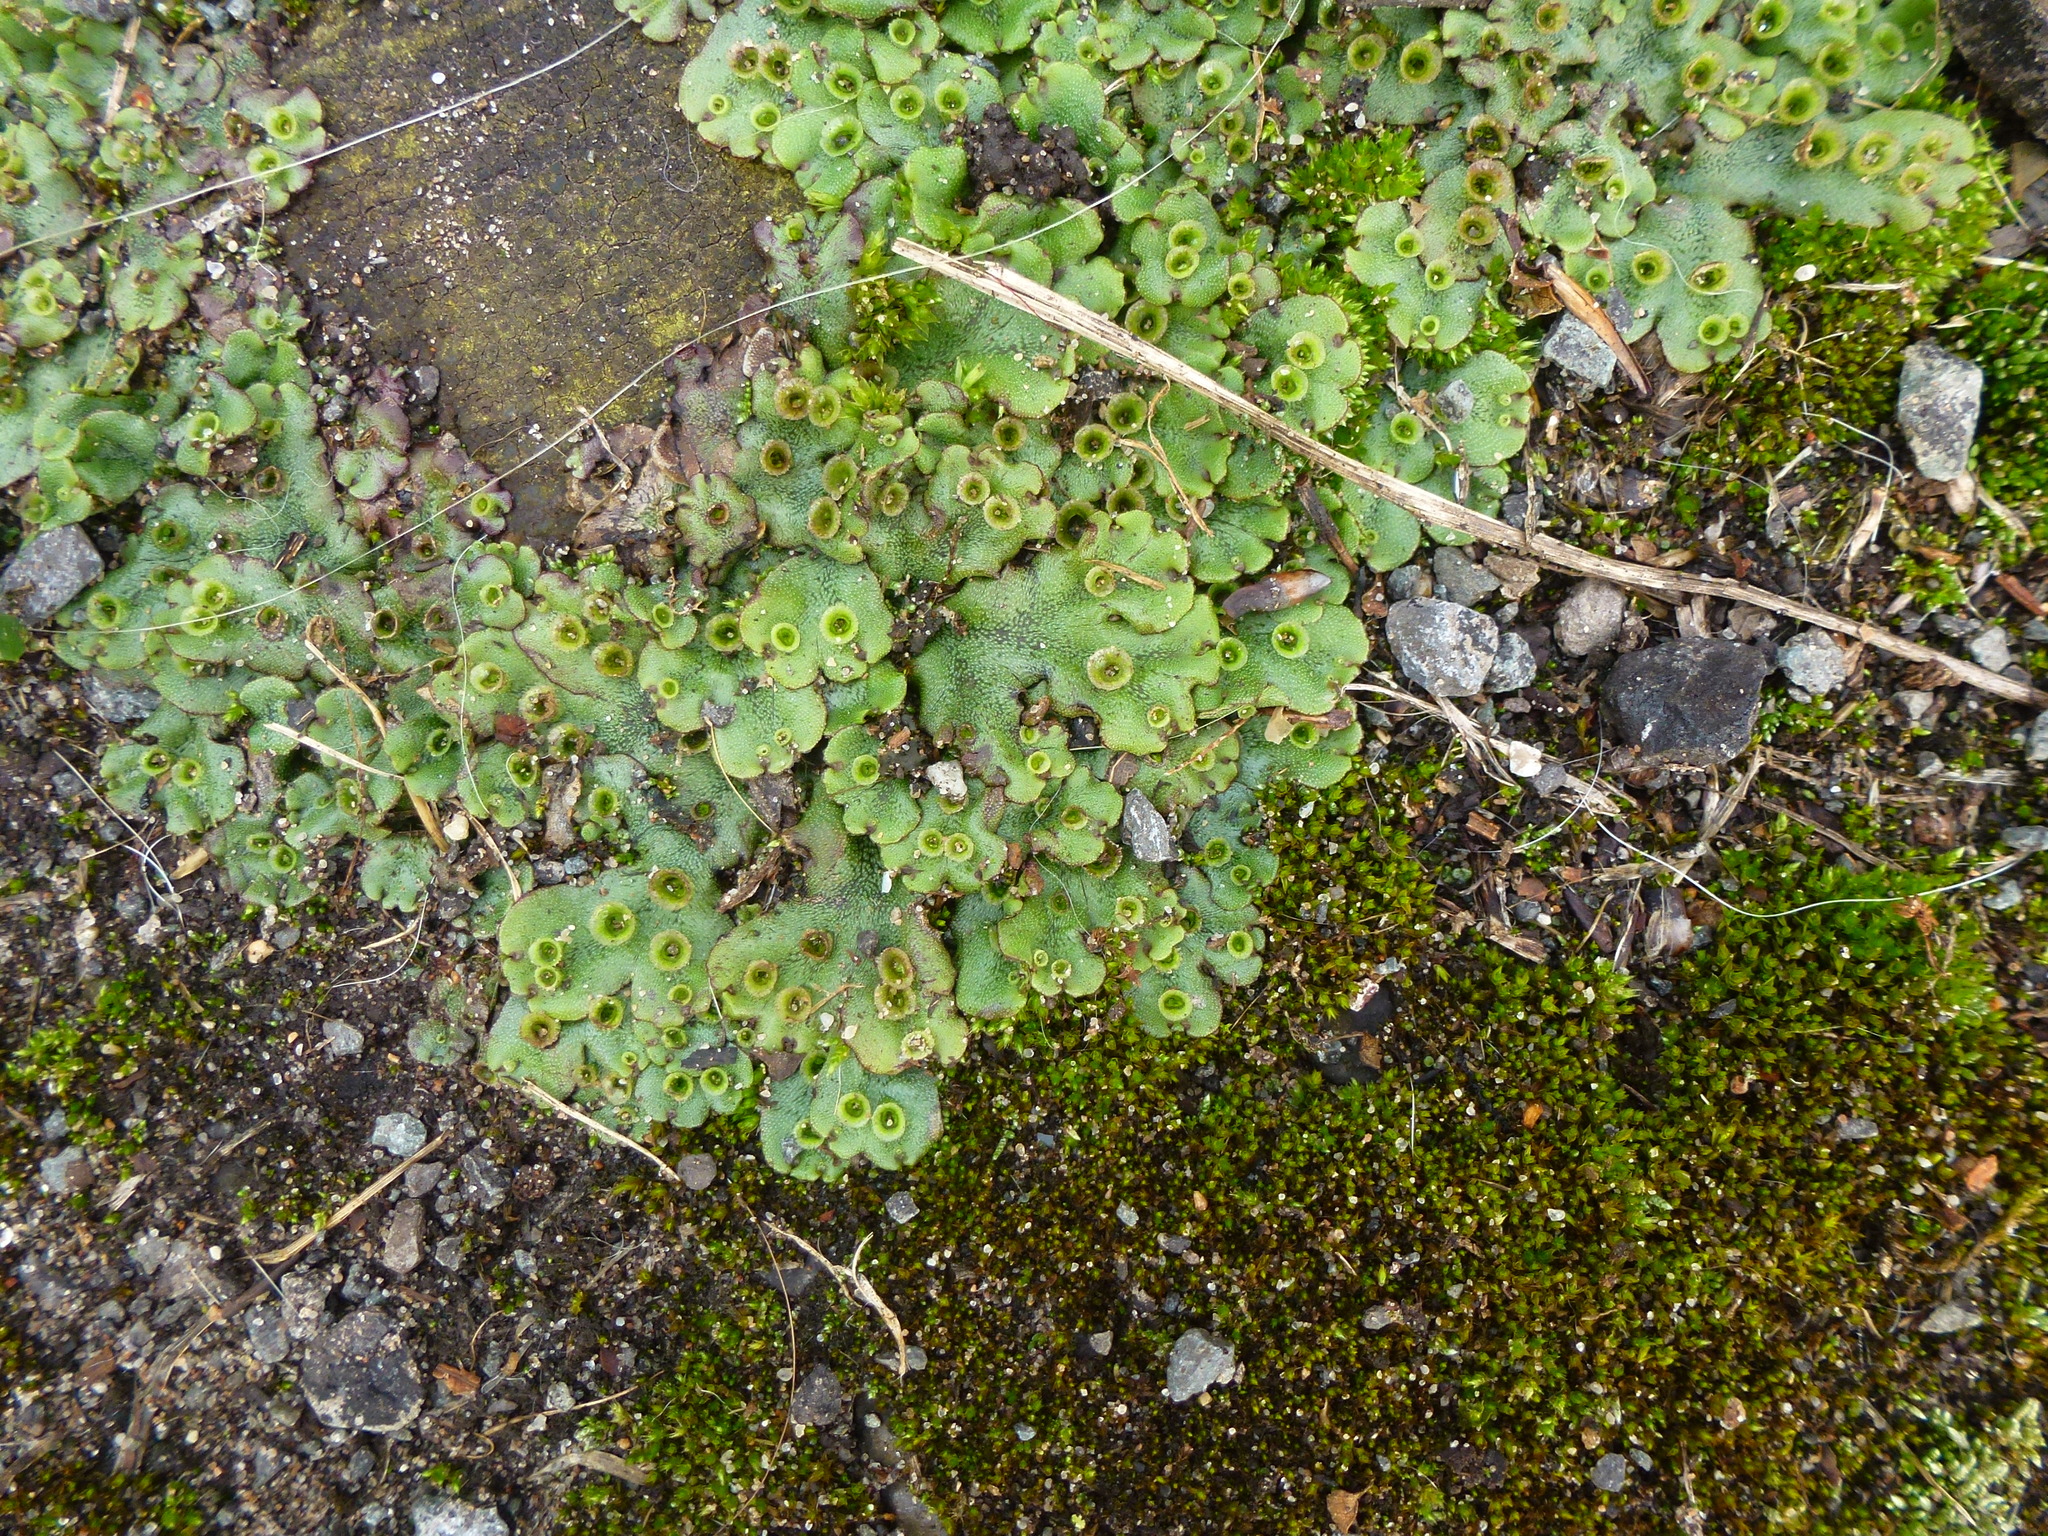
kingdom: Plantae
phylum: Marchantiophyta
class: Marchantiopsida
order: Marchantiales
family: Marchantiaceae
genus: Marchantia
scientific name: Marchantia polymorpha
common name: Common liverwort
